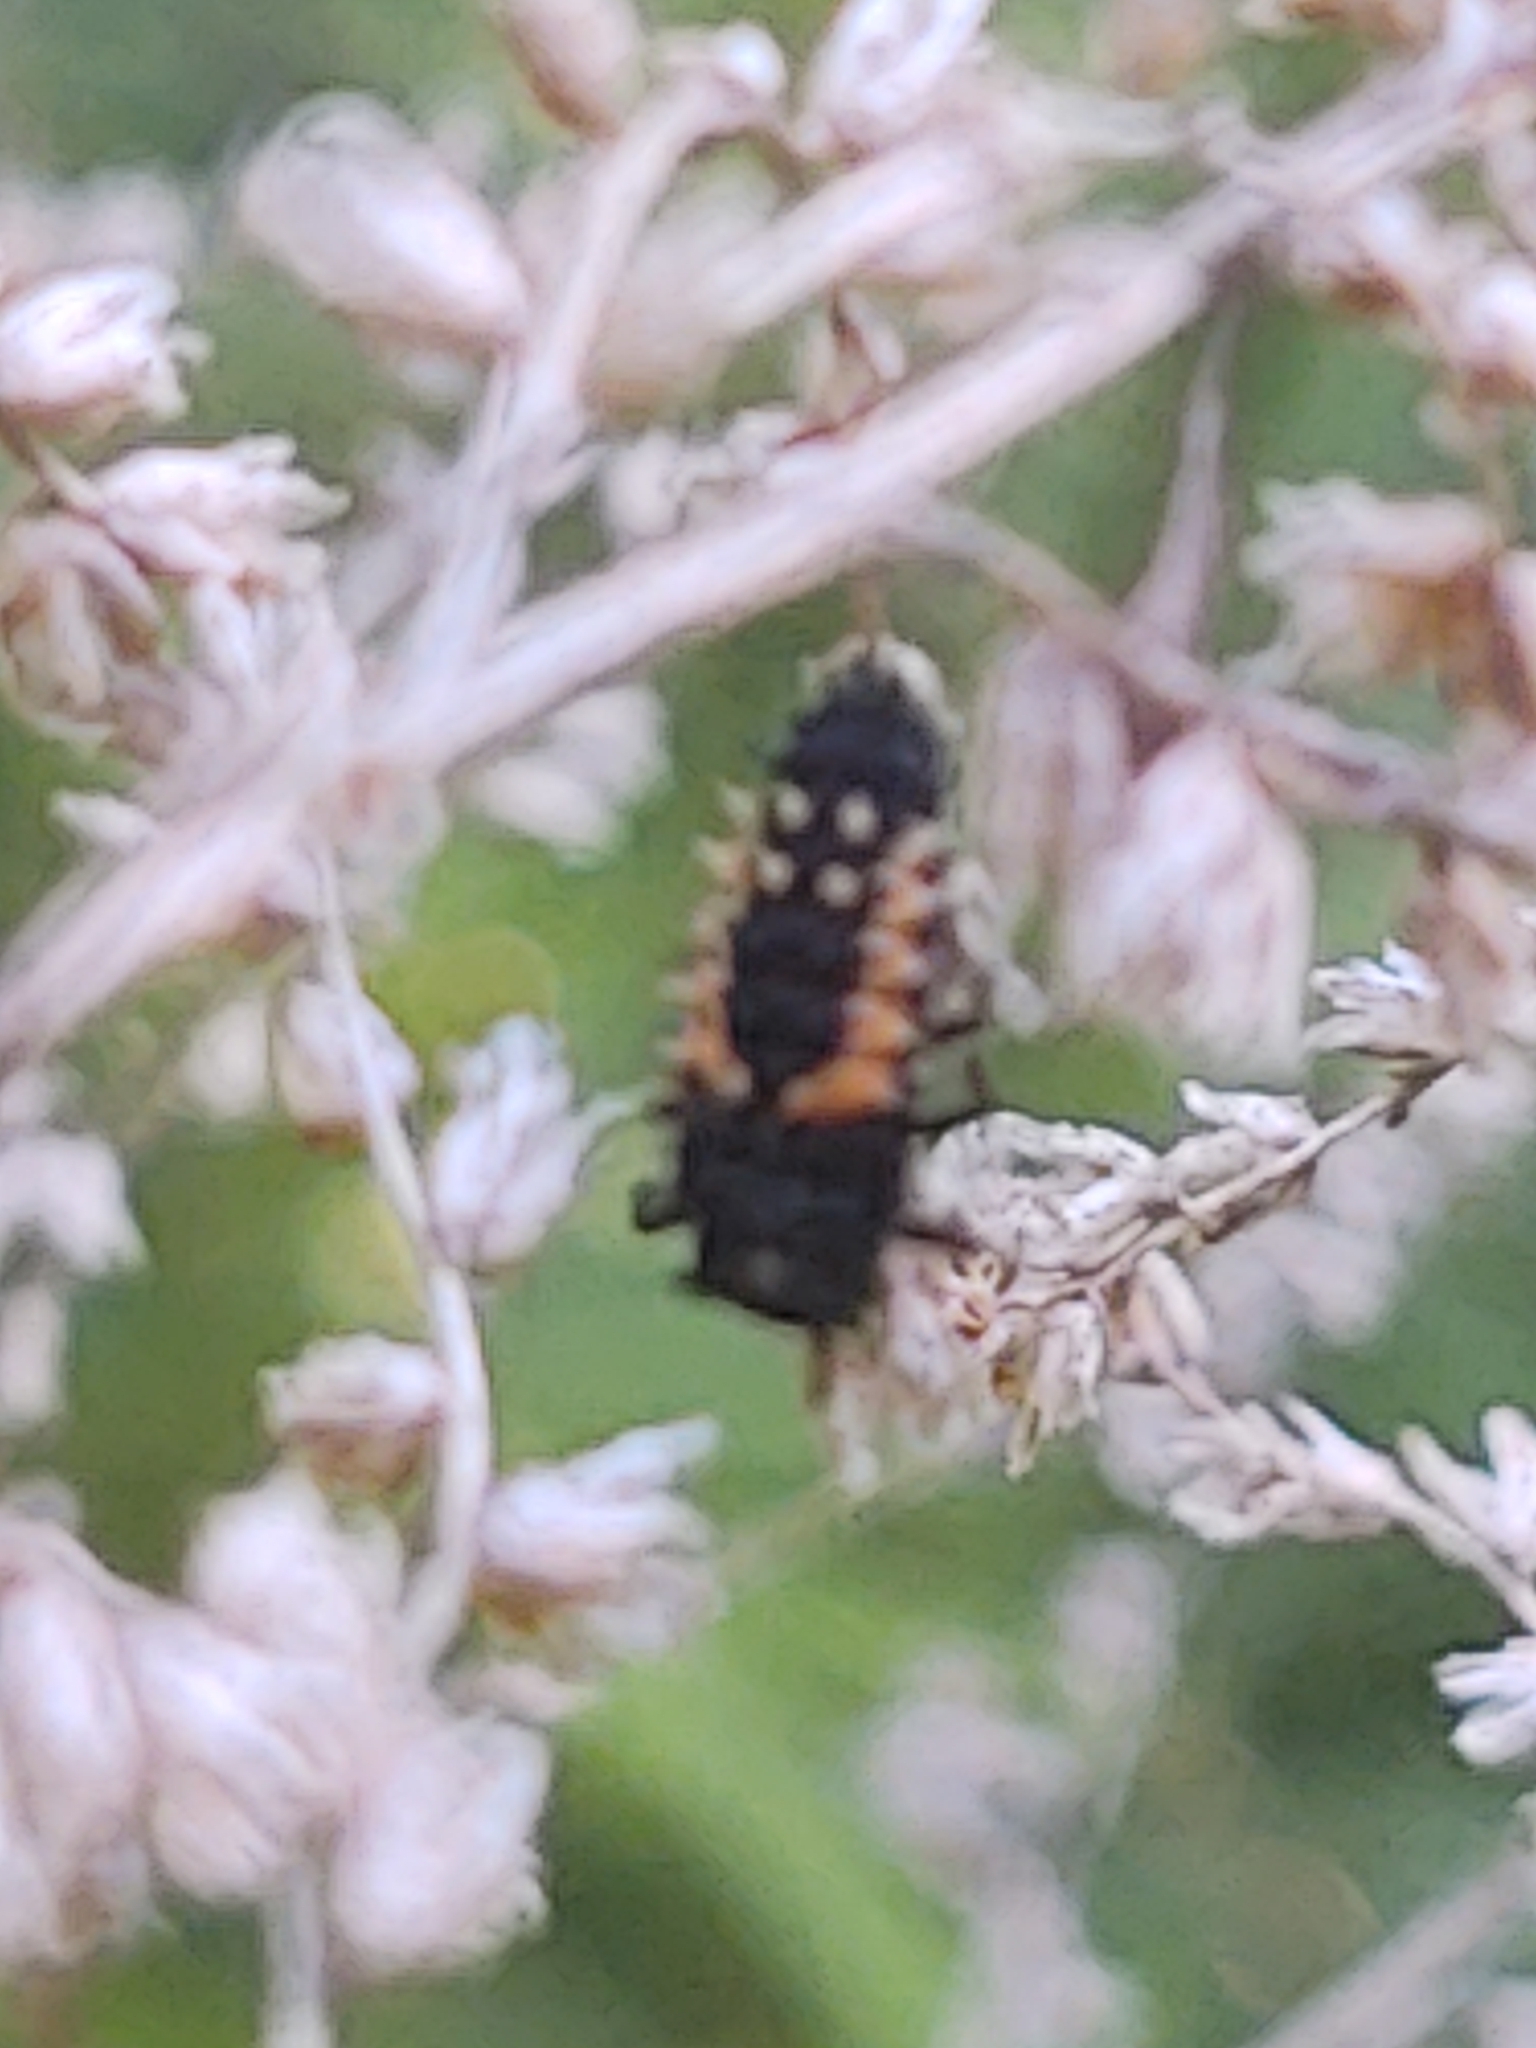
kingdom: Animalia
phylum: Arthropoda
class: Insecta
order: Coleoptera
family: Coccinellidae
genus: Harmonia
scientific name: Harmonia axyridis
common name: Harlequin ladybird
